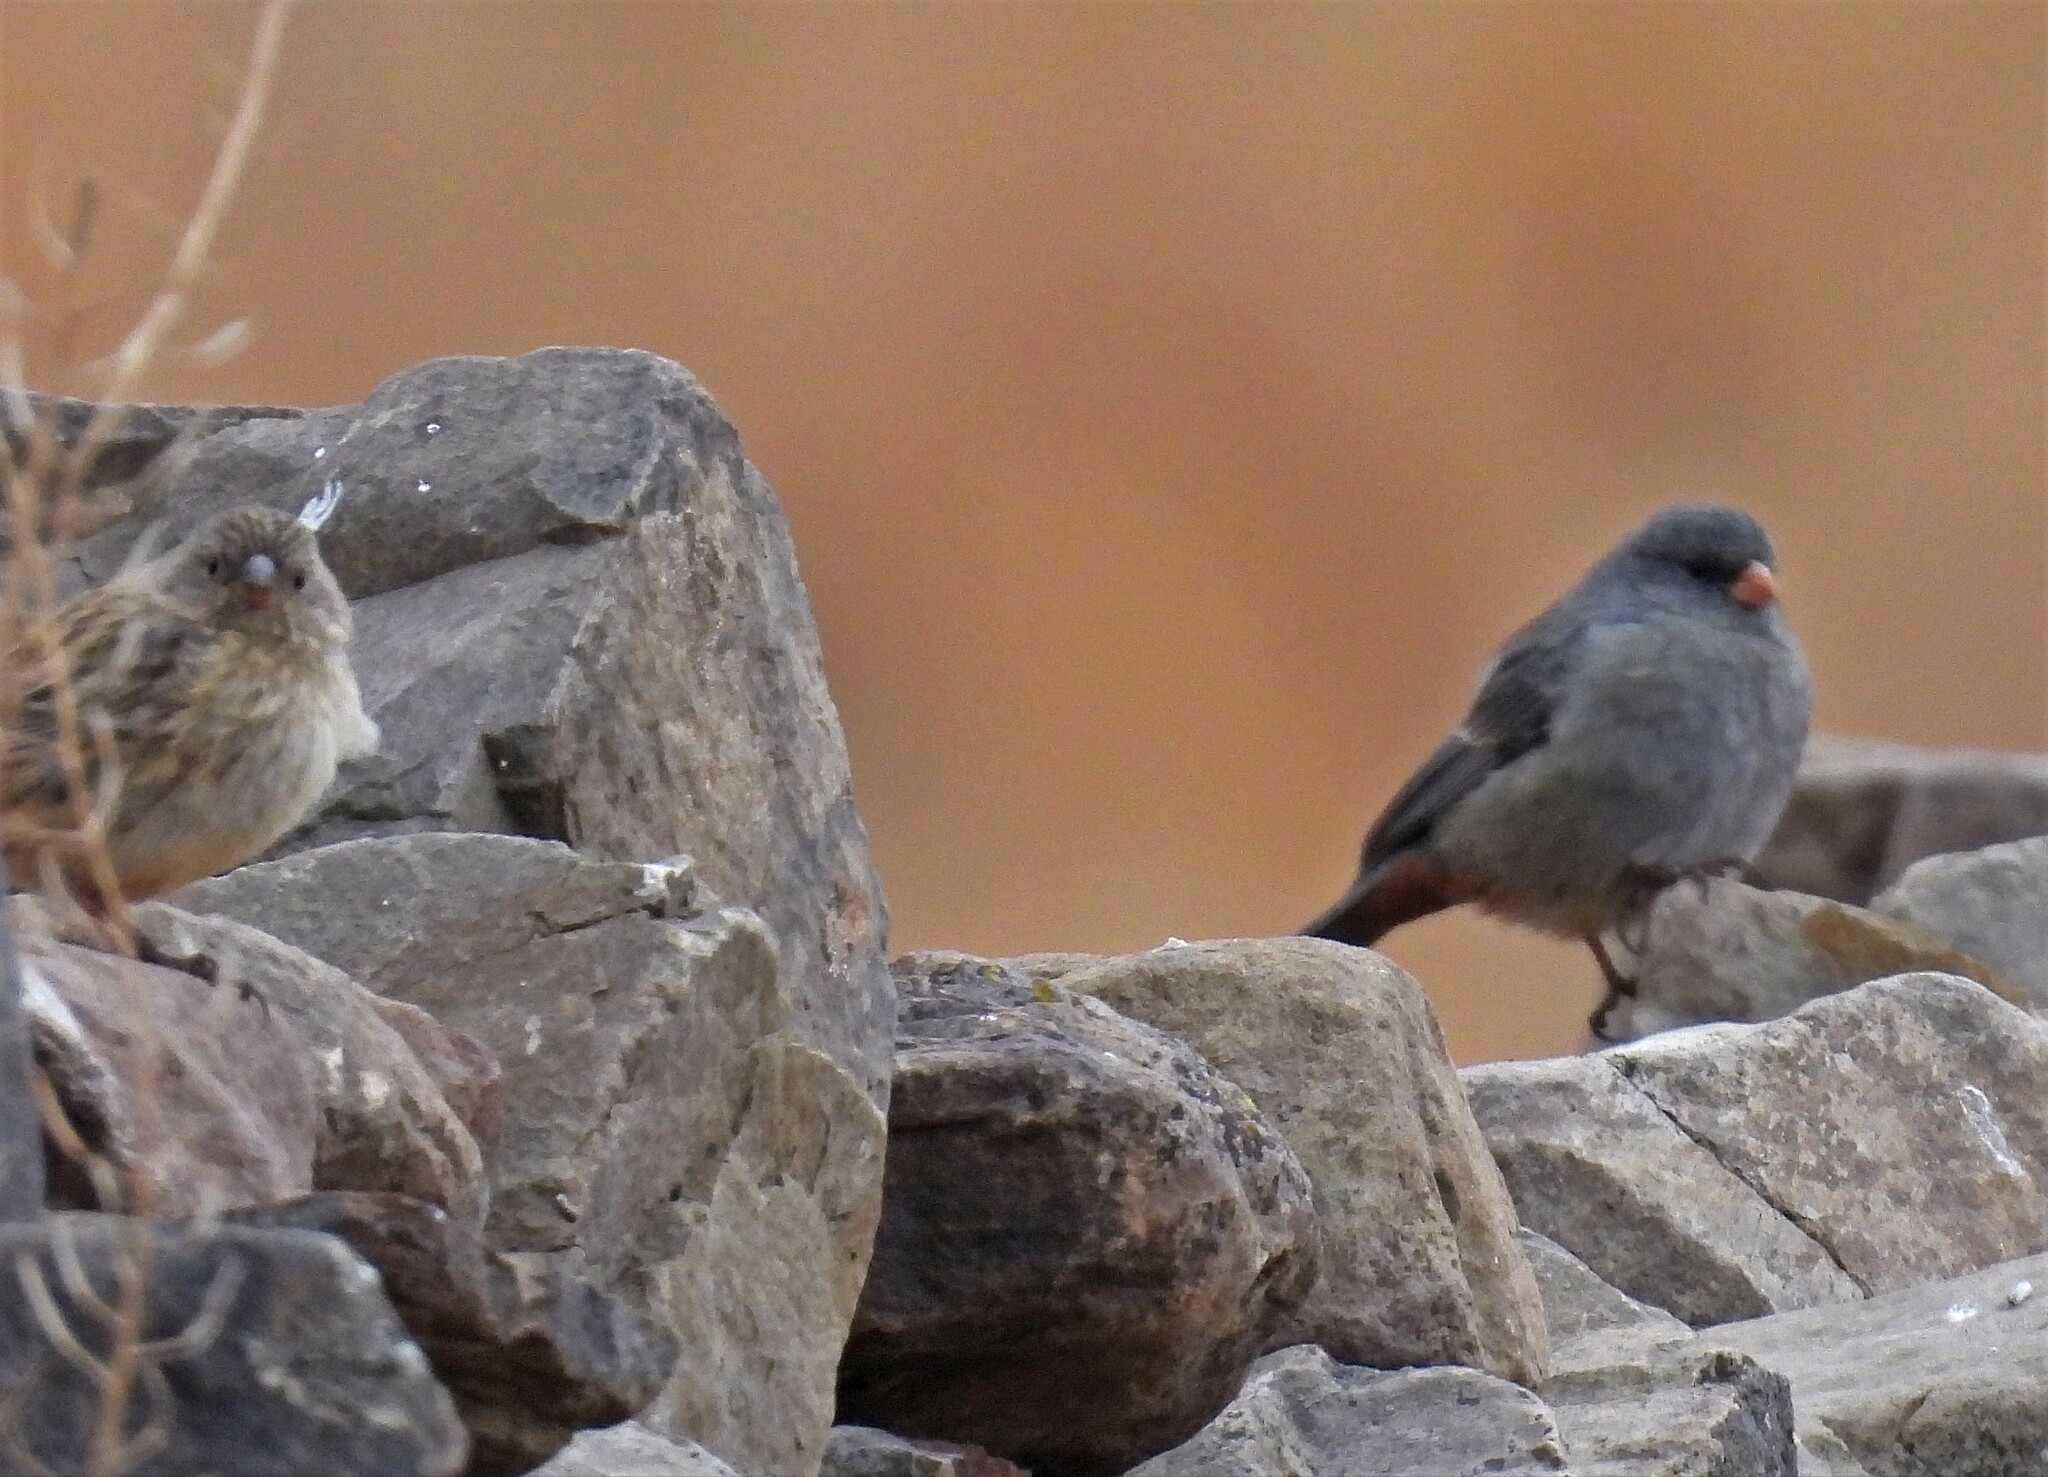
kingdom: Animalia
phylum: Chordata
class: Aves
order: Passeriformes
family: Thraupidae
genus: Catamenia
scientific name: Catamenia inornata
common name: Plain-colored seedeater
